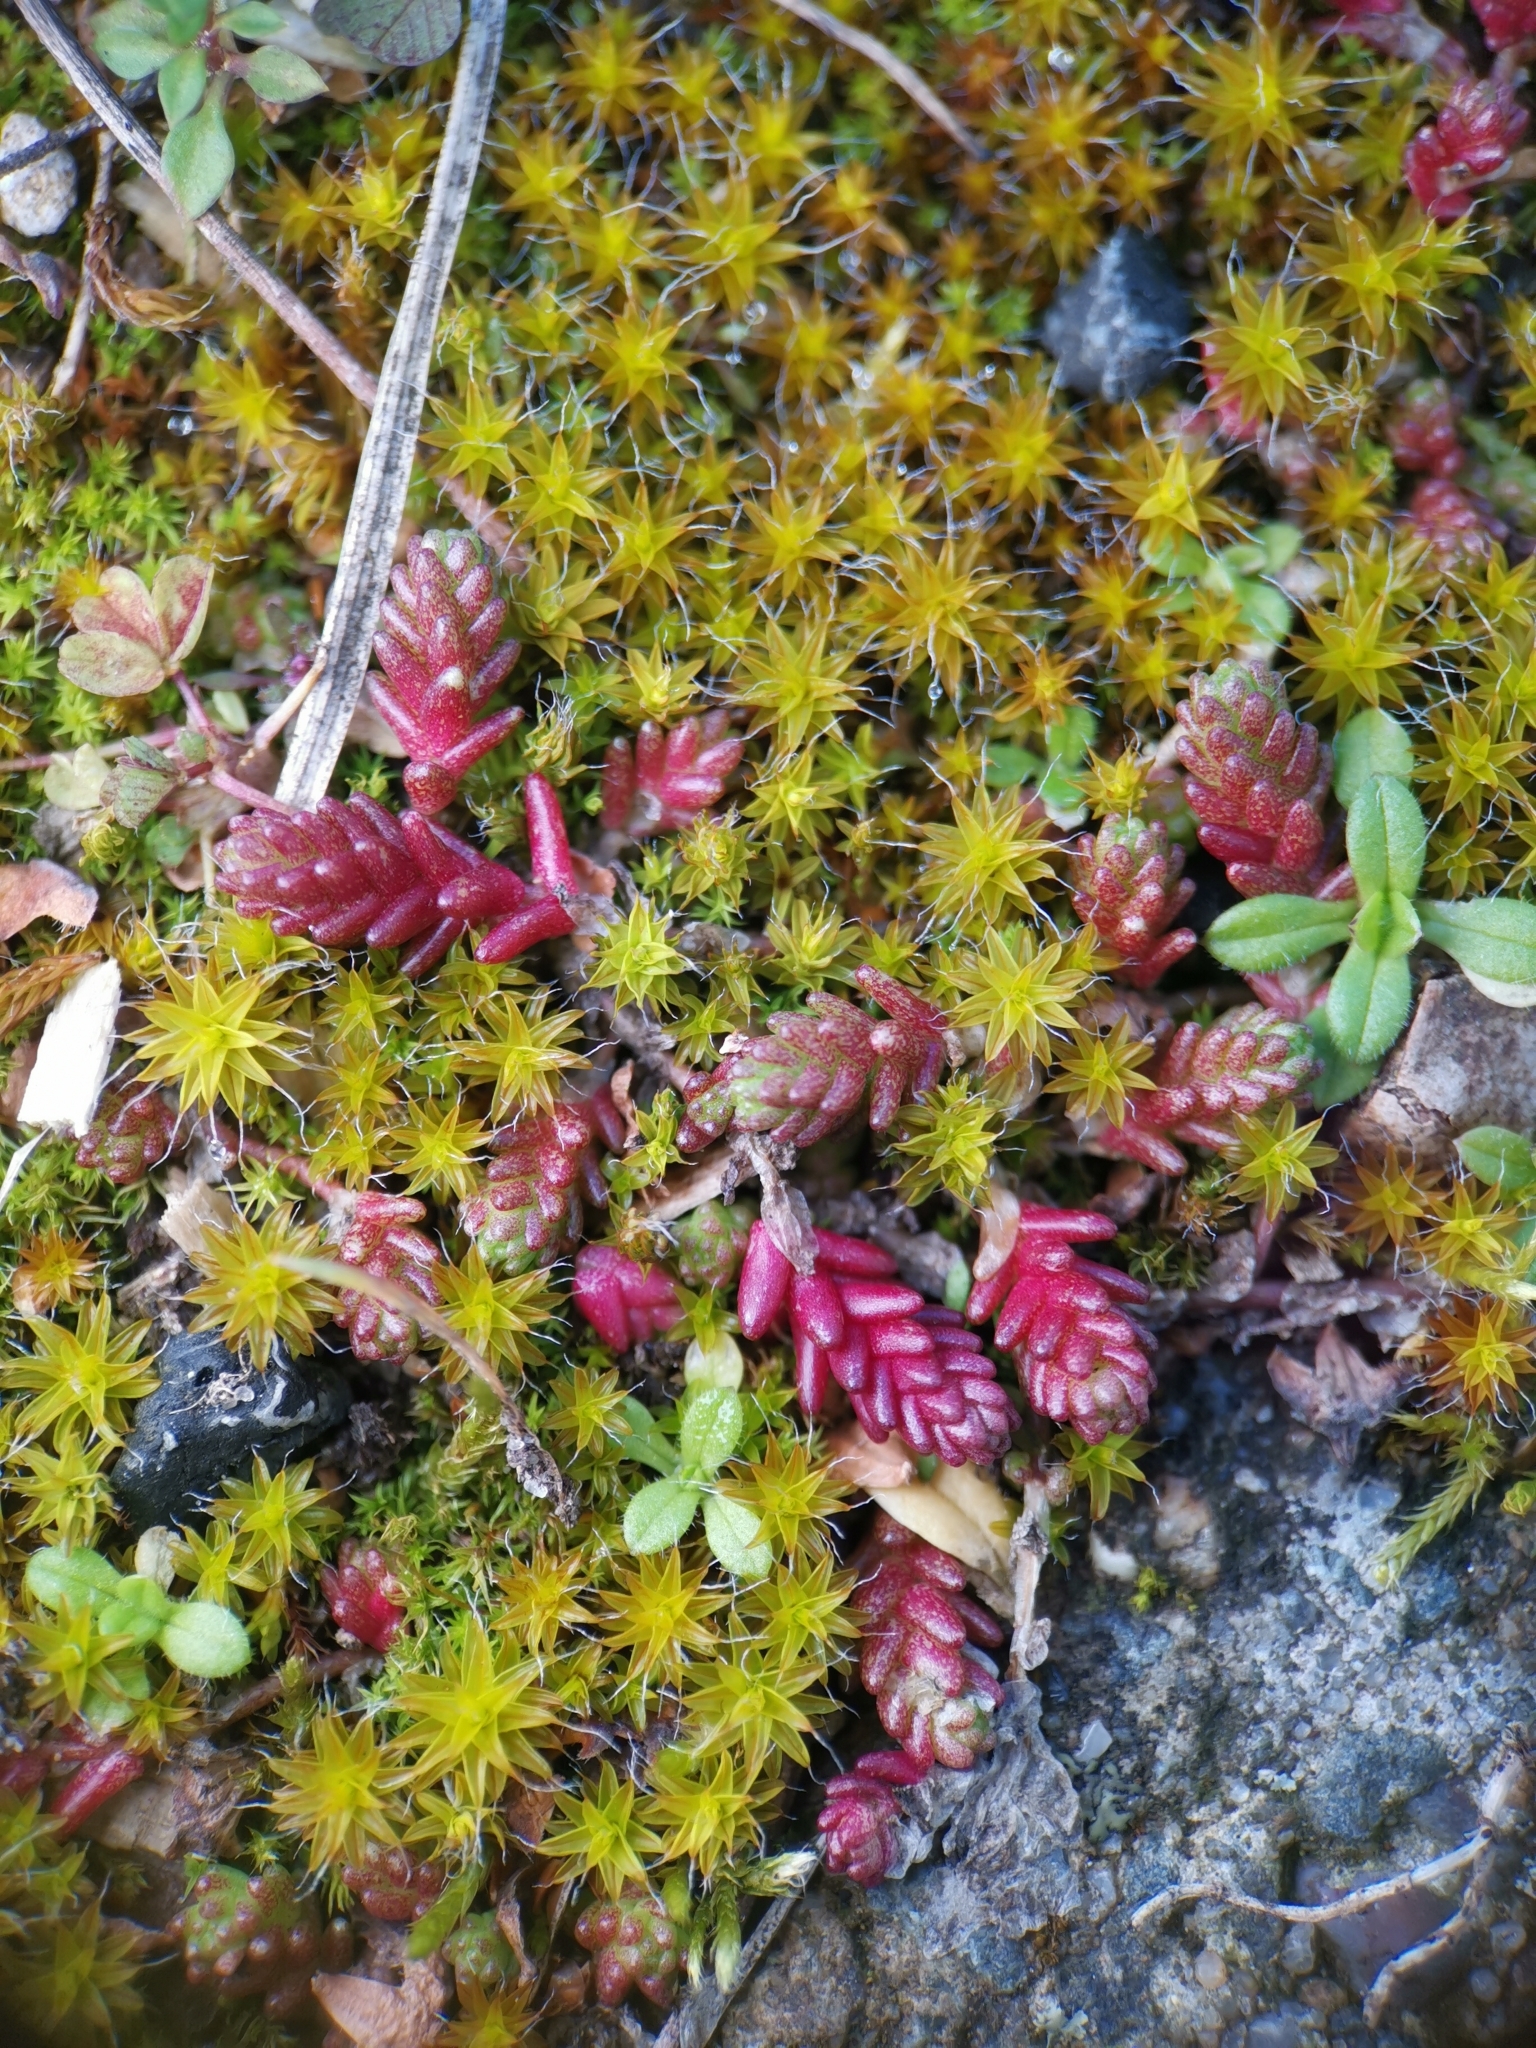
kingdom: Plantae
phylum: Tracheophyta
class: Magnoliopsida
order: Saxifragales
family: Crassulaceae
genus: Sedum
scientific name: Sedum acre
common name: Biting stonecrop
